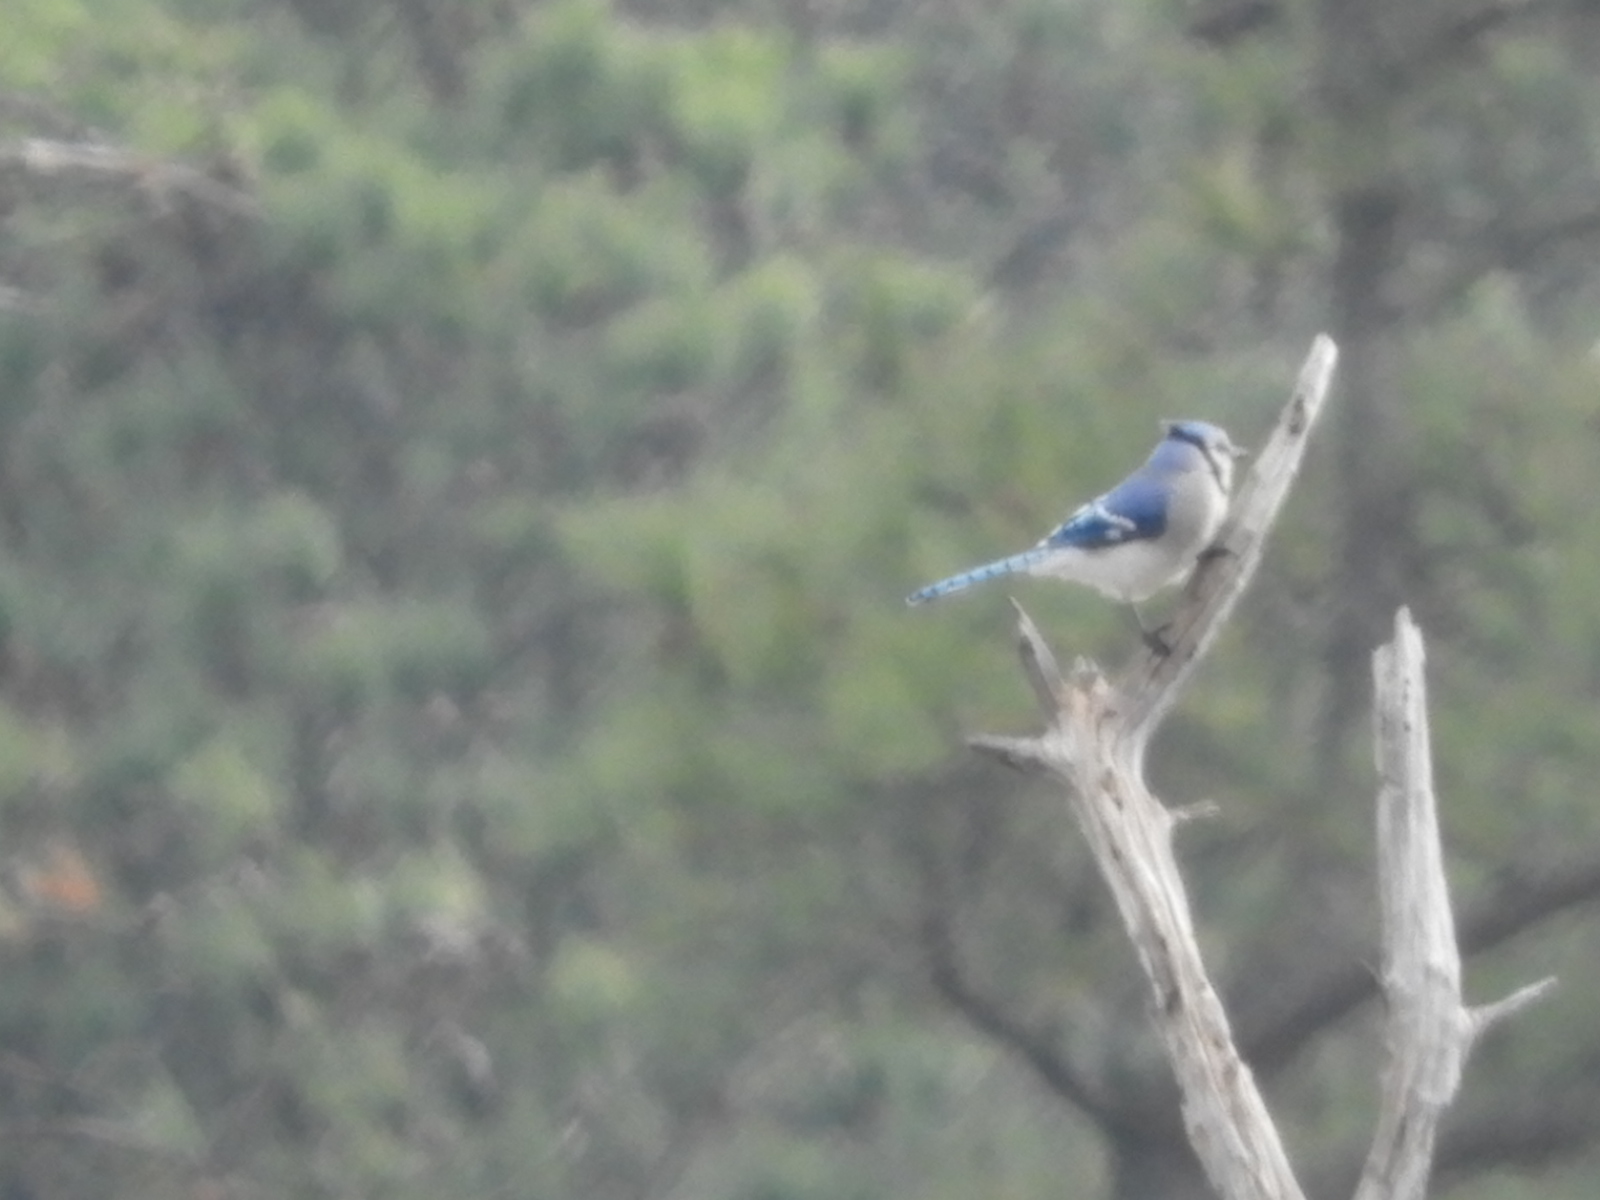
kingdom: Animalia
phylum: Chordata
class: Aves
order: Passeriformes
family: Corvidae
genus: Cyanocitta
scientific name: Cyanocitta cristata
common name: Blue jay
